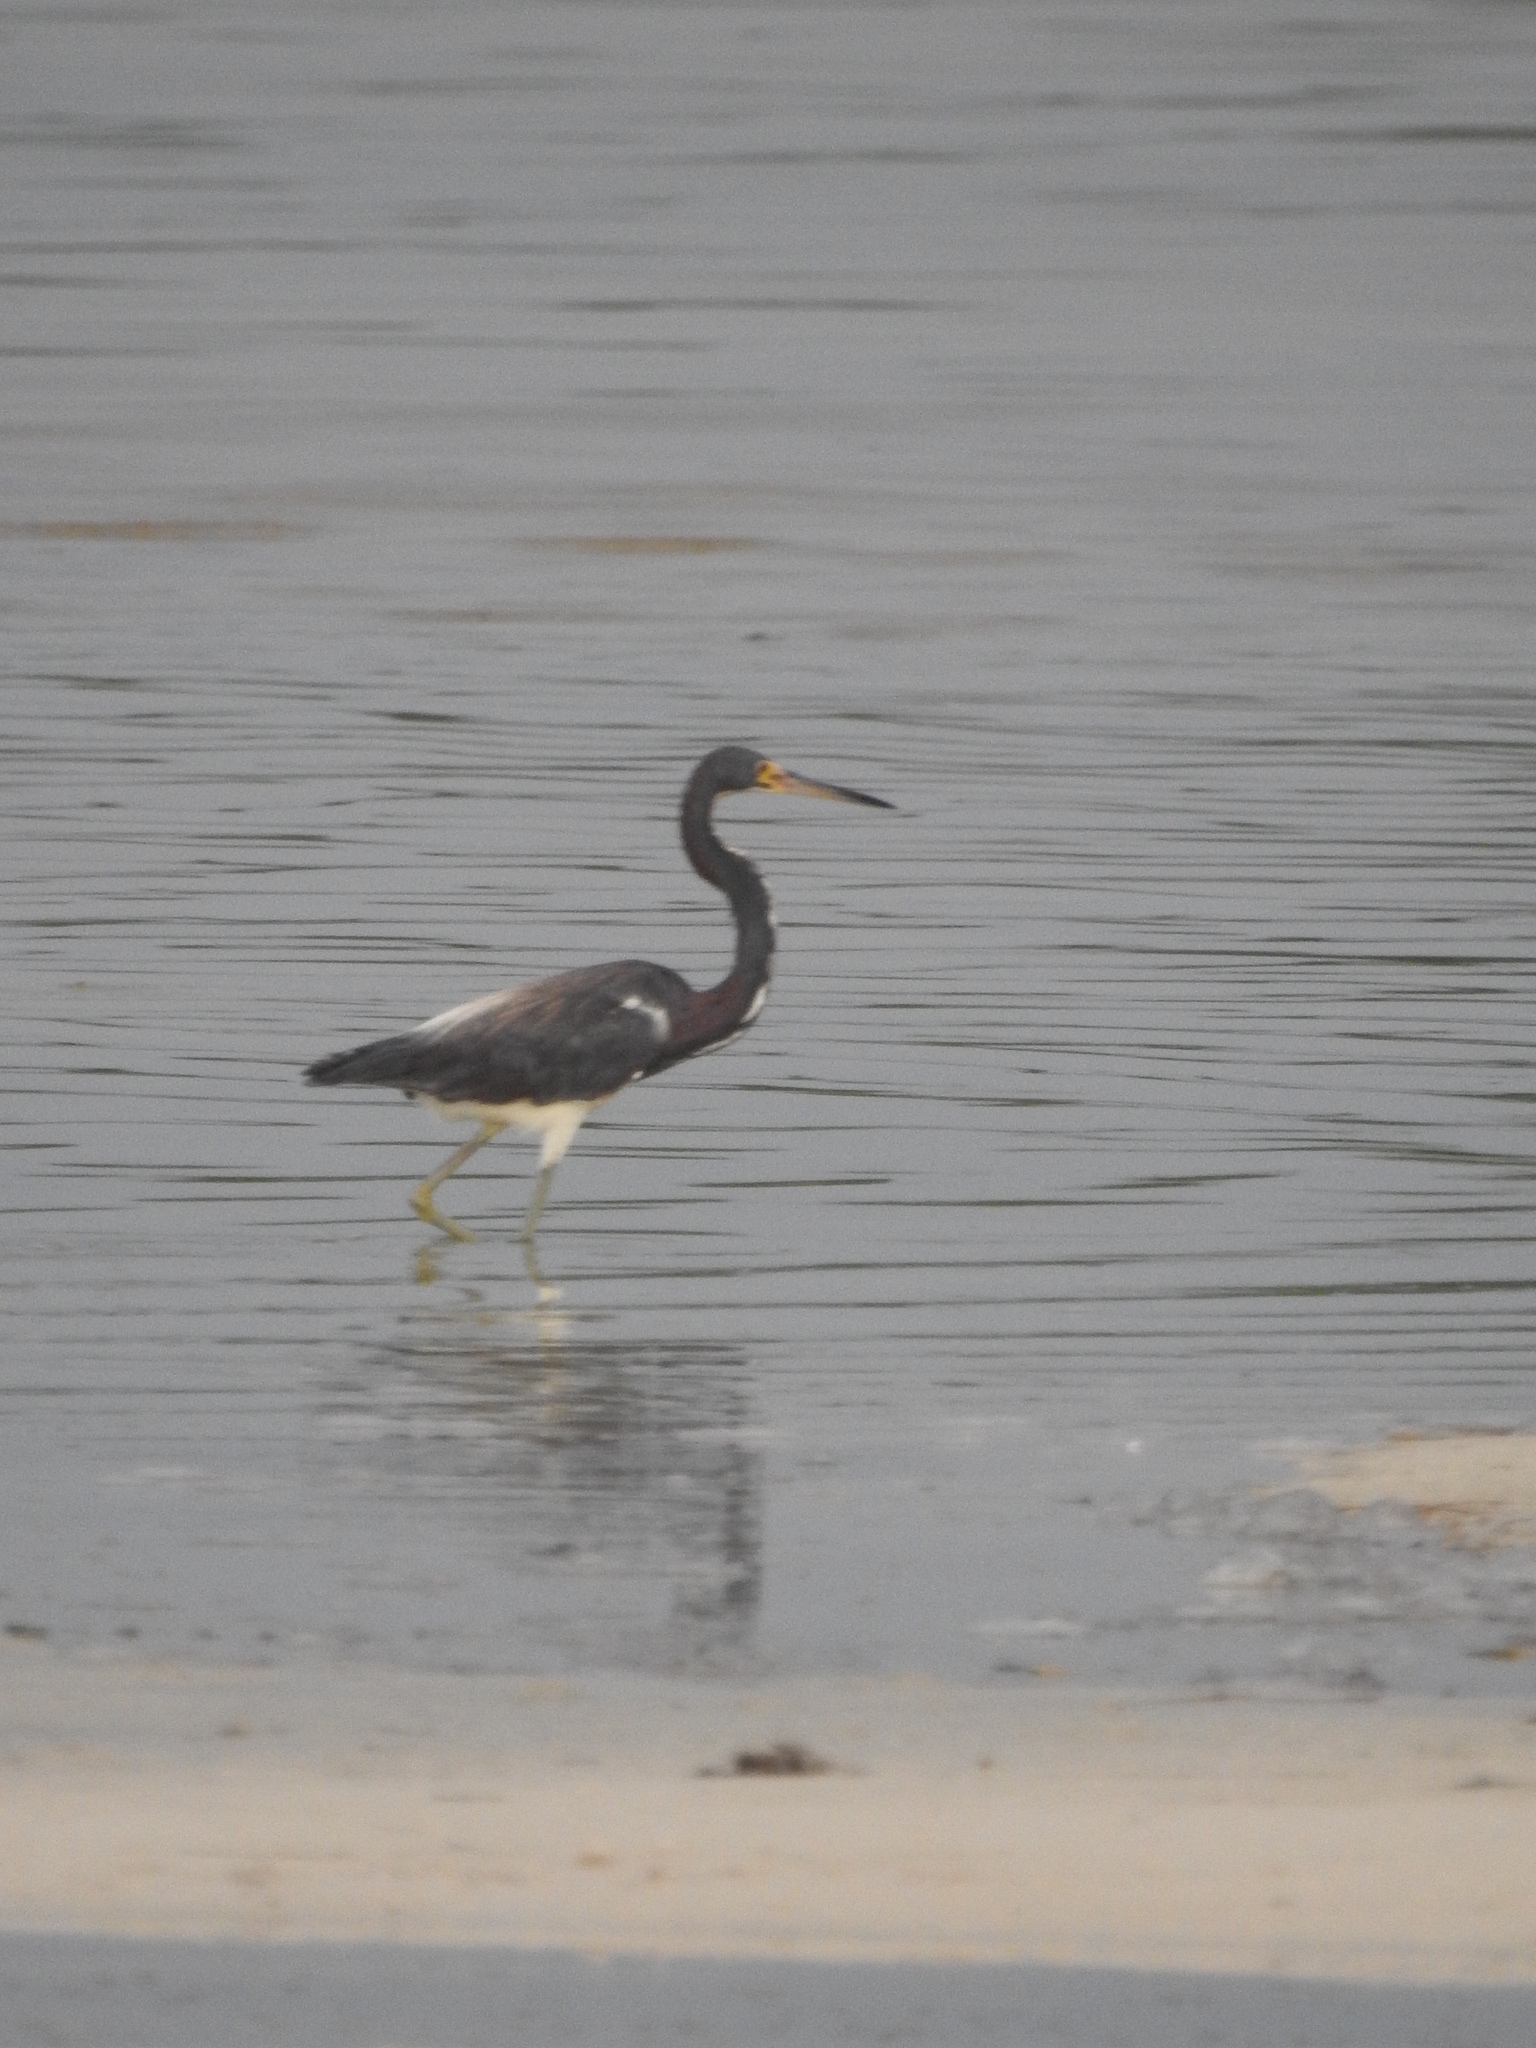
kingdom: Animalia
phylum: Chordata
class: Aves
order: Pelecaniformes
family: Ardeidae
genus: Egretta
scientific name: Egretta tricolor
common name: Tricolored heron
